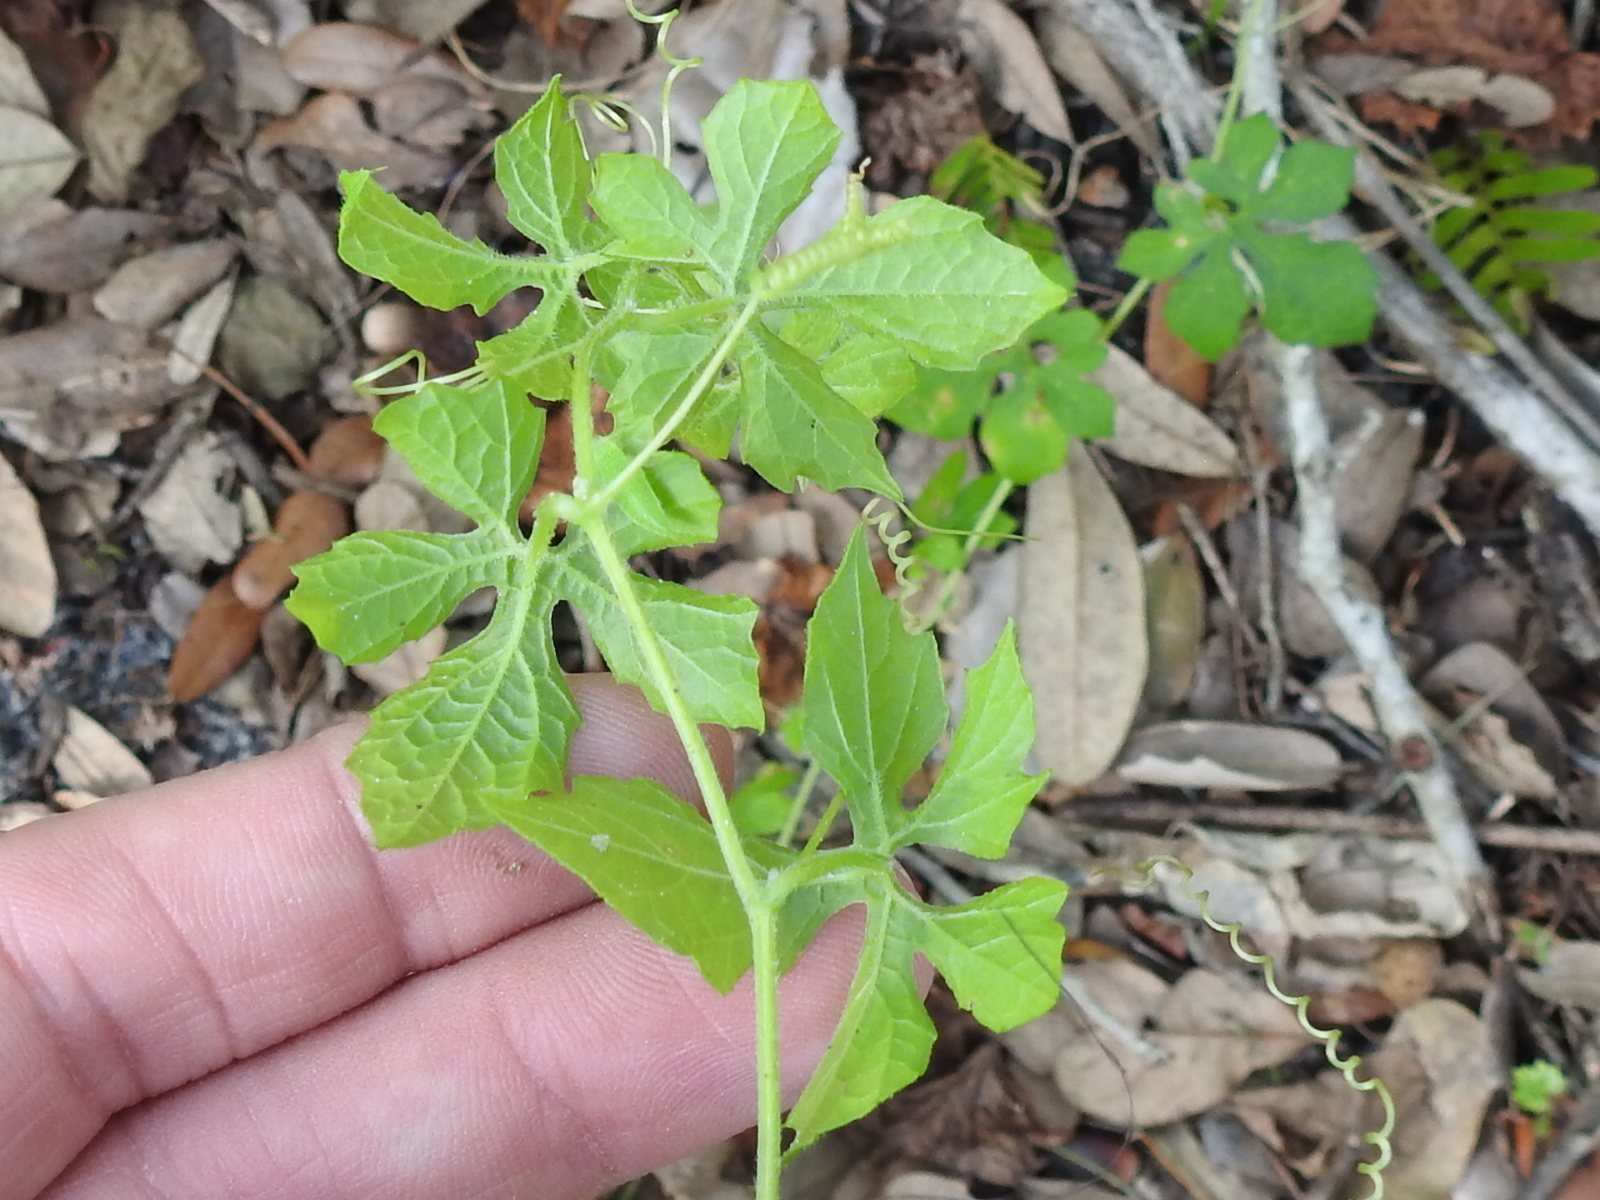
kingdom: Plantae
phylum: Tracheophyta
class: Magnoliopsida
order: Cucurbitales
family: Cucurbitaceae
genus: Momordica
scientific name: Momordica charantia
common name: Balsampear
